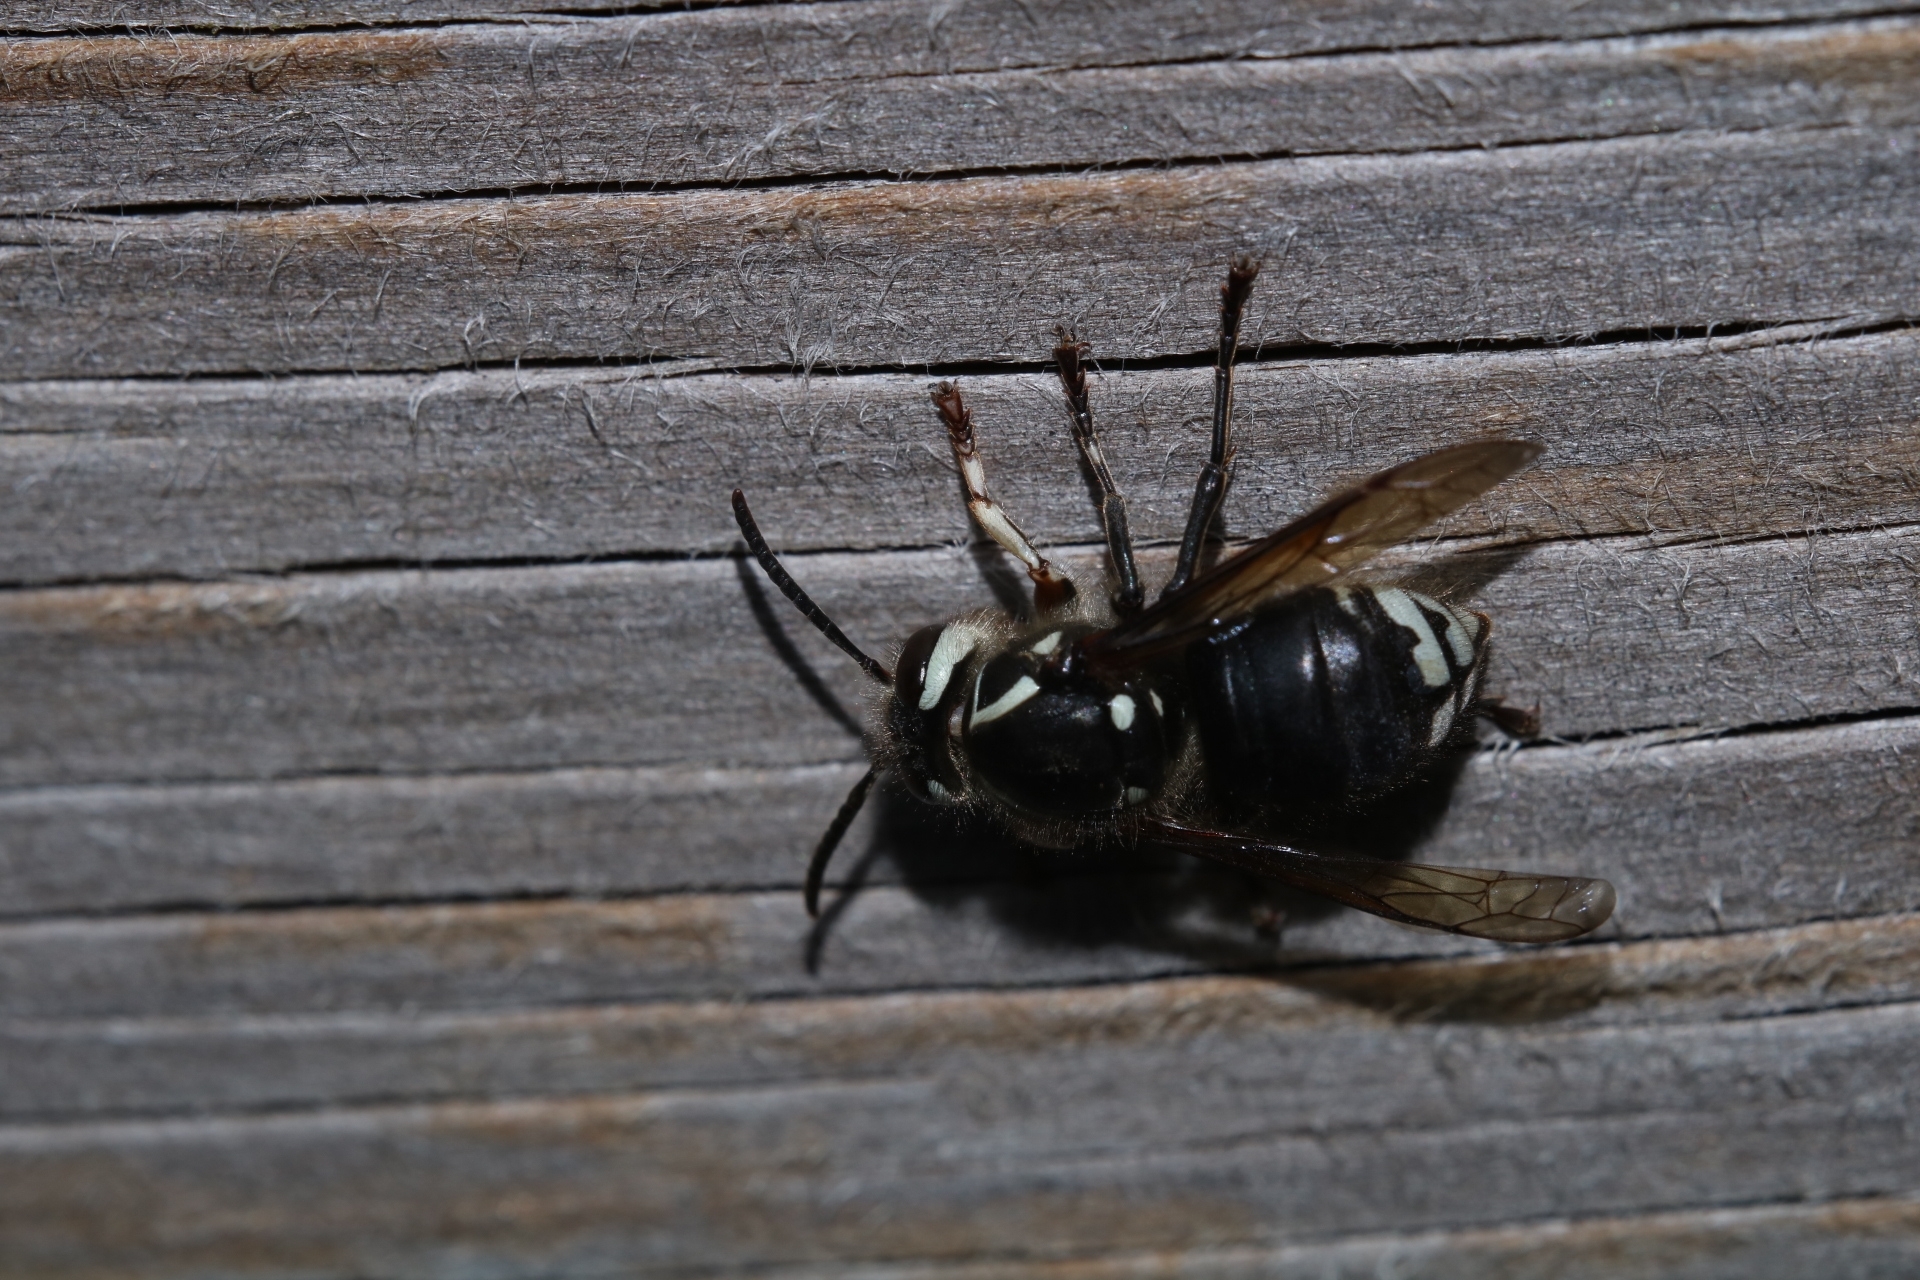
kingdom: Animalia
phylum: Arthropoda
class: Insecta
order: Hymenoptera
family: Vespidae
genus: Dolichovespula
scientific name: Dolichovespula maculata
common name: Bald-faced hornet
